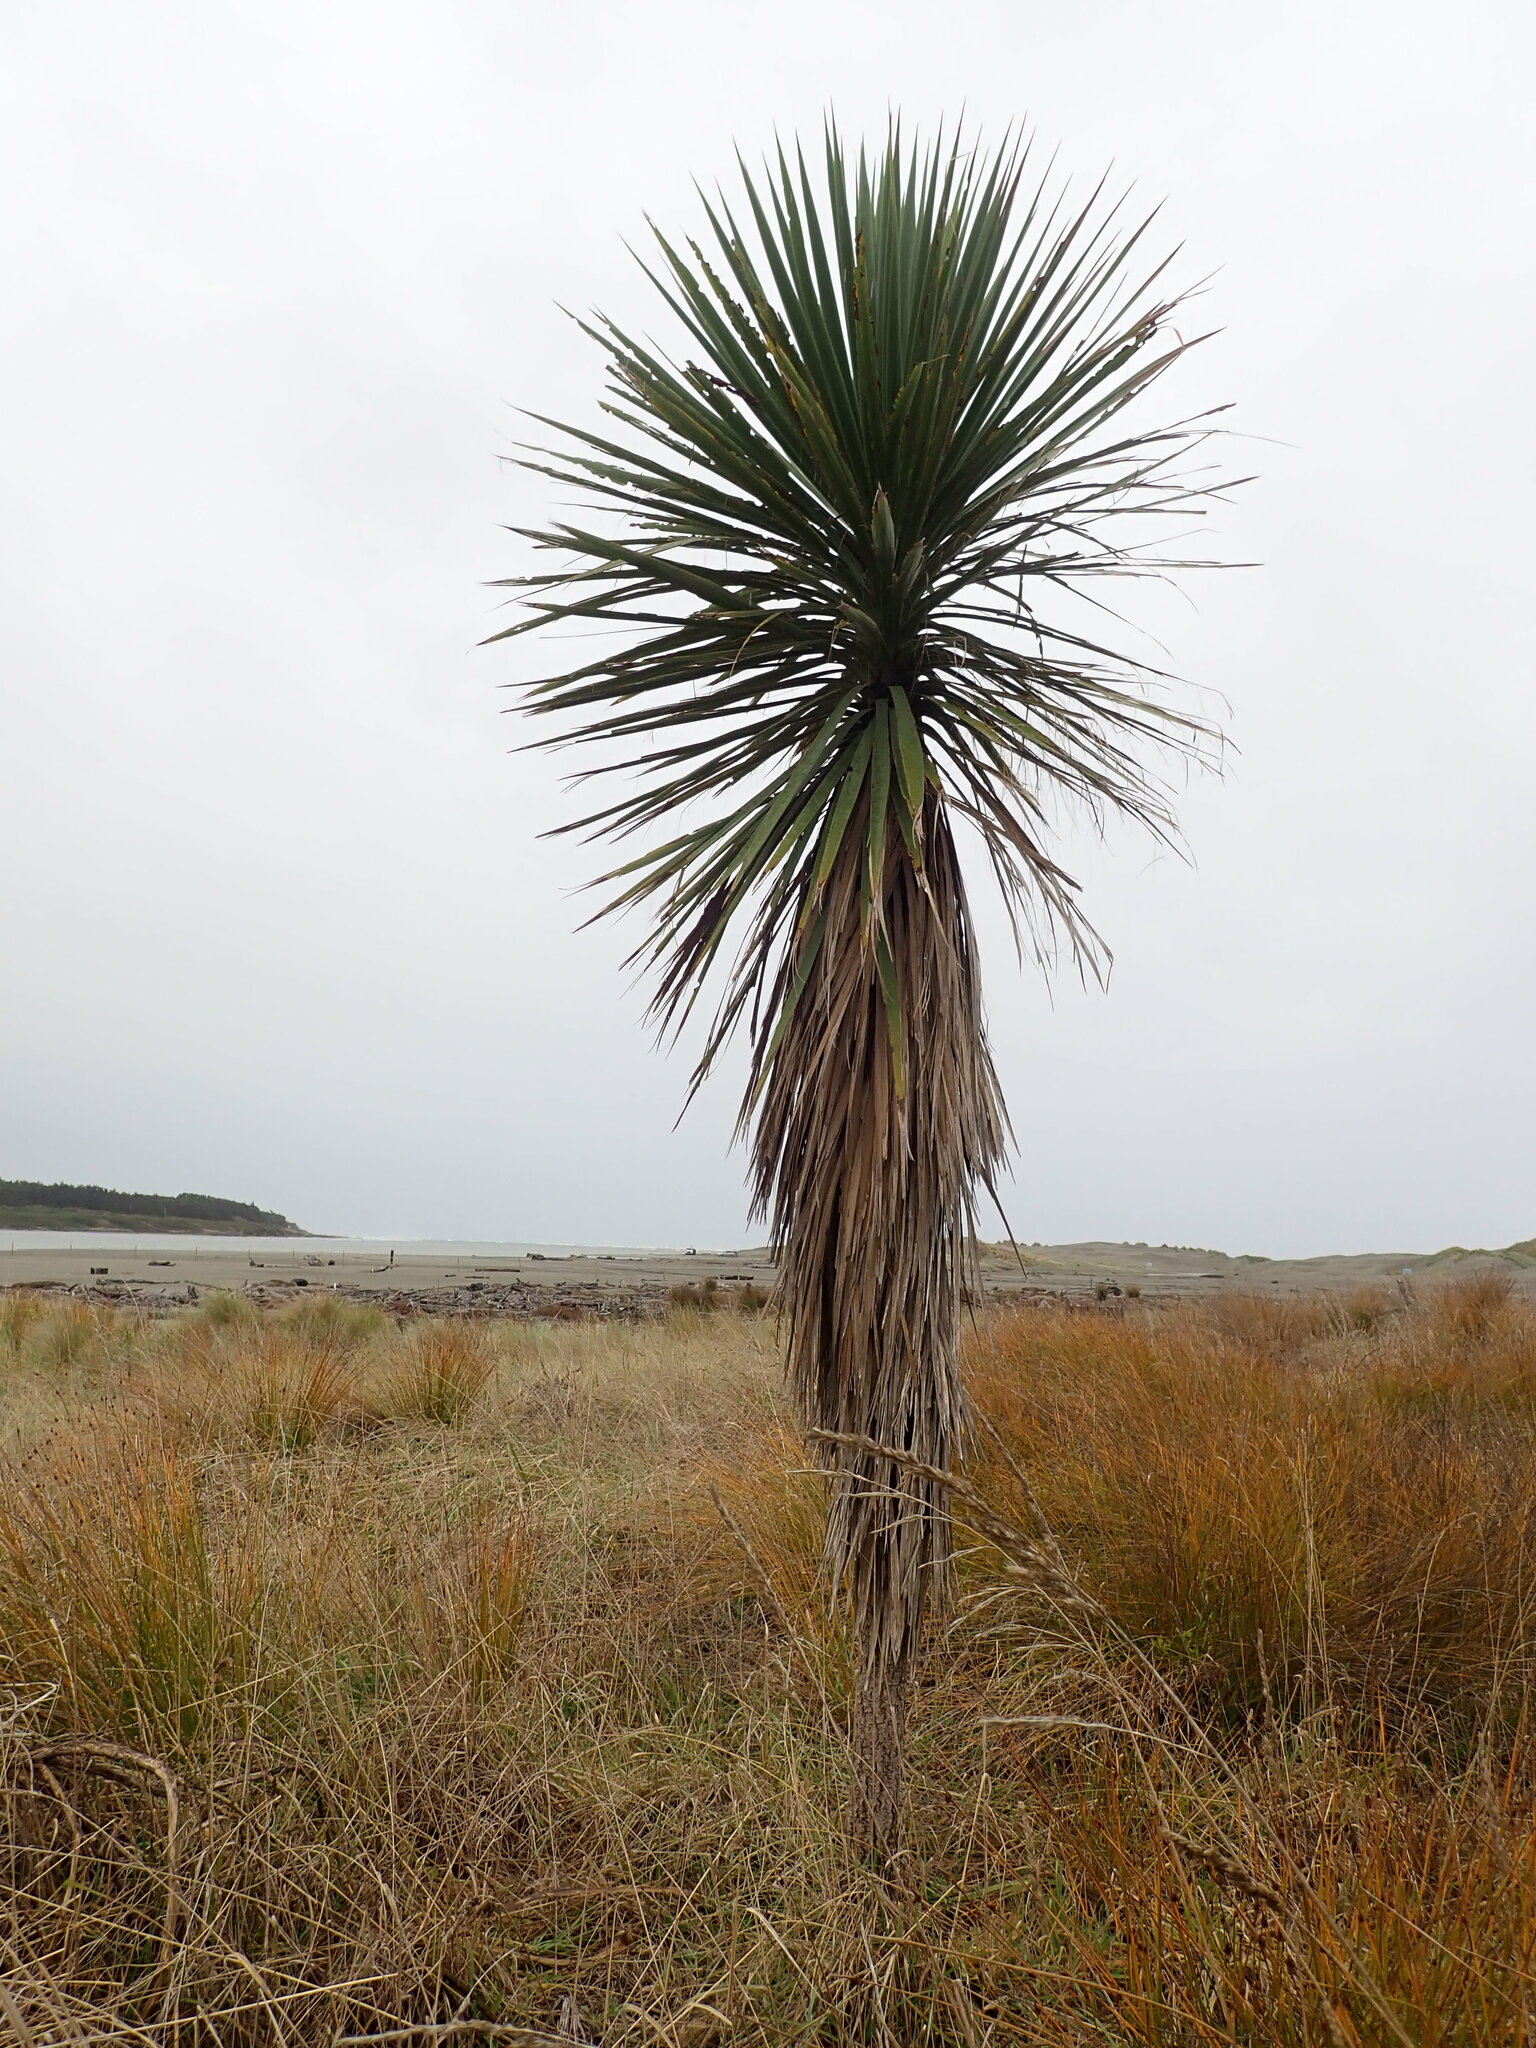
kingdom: Plantae
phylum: Tracheophyta
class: Liliopsida
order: Asparagales
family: Asparagaceae
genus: Cordyline
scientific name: Cordyline australis
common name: Cabbage-palm
